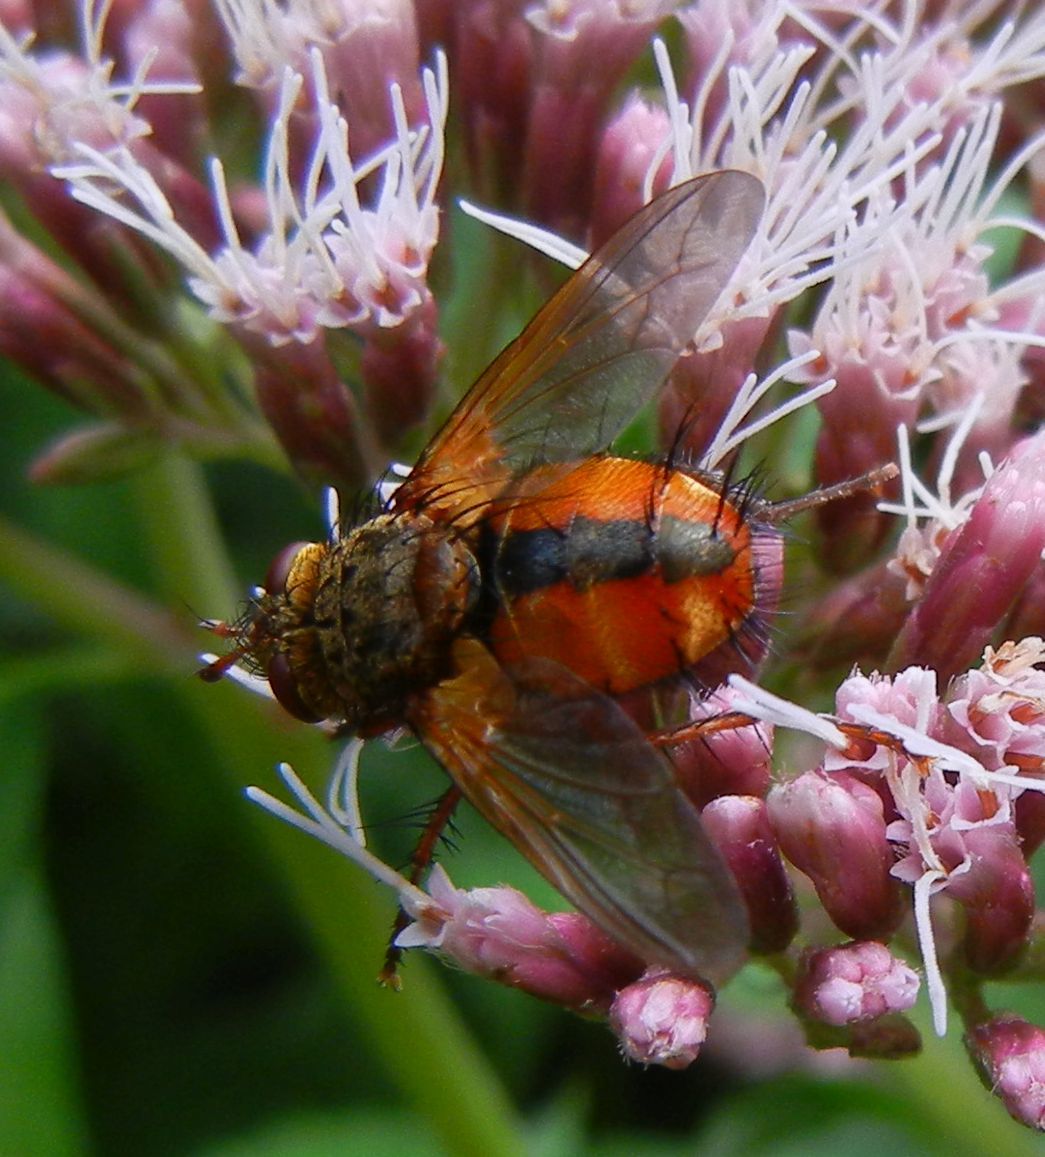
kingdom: Animalia
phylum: Arthropoda
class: Insecta
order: Diptera
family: Tachinidae
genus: Tachina
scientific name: Tachina fera
